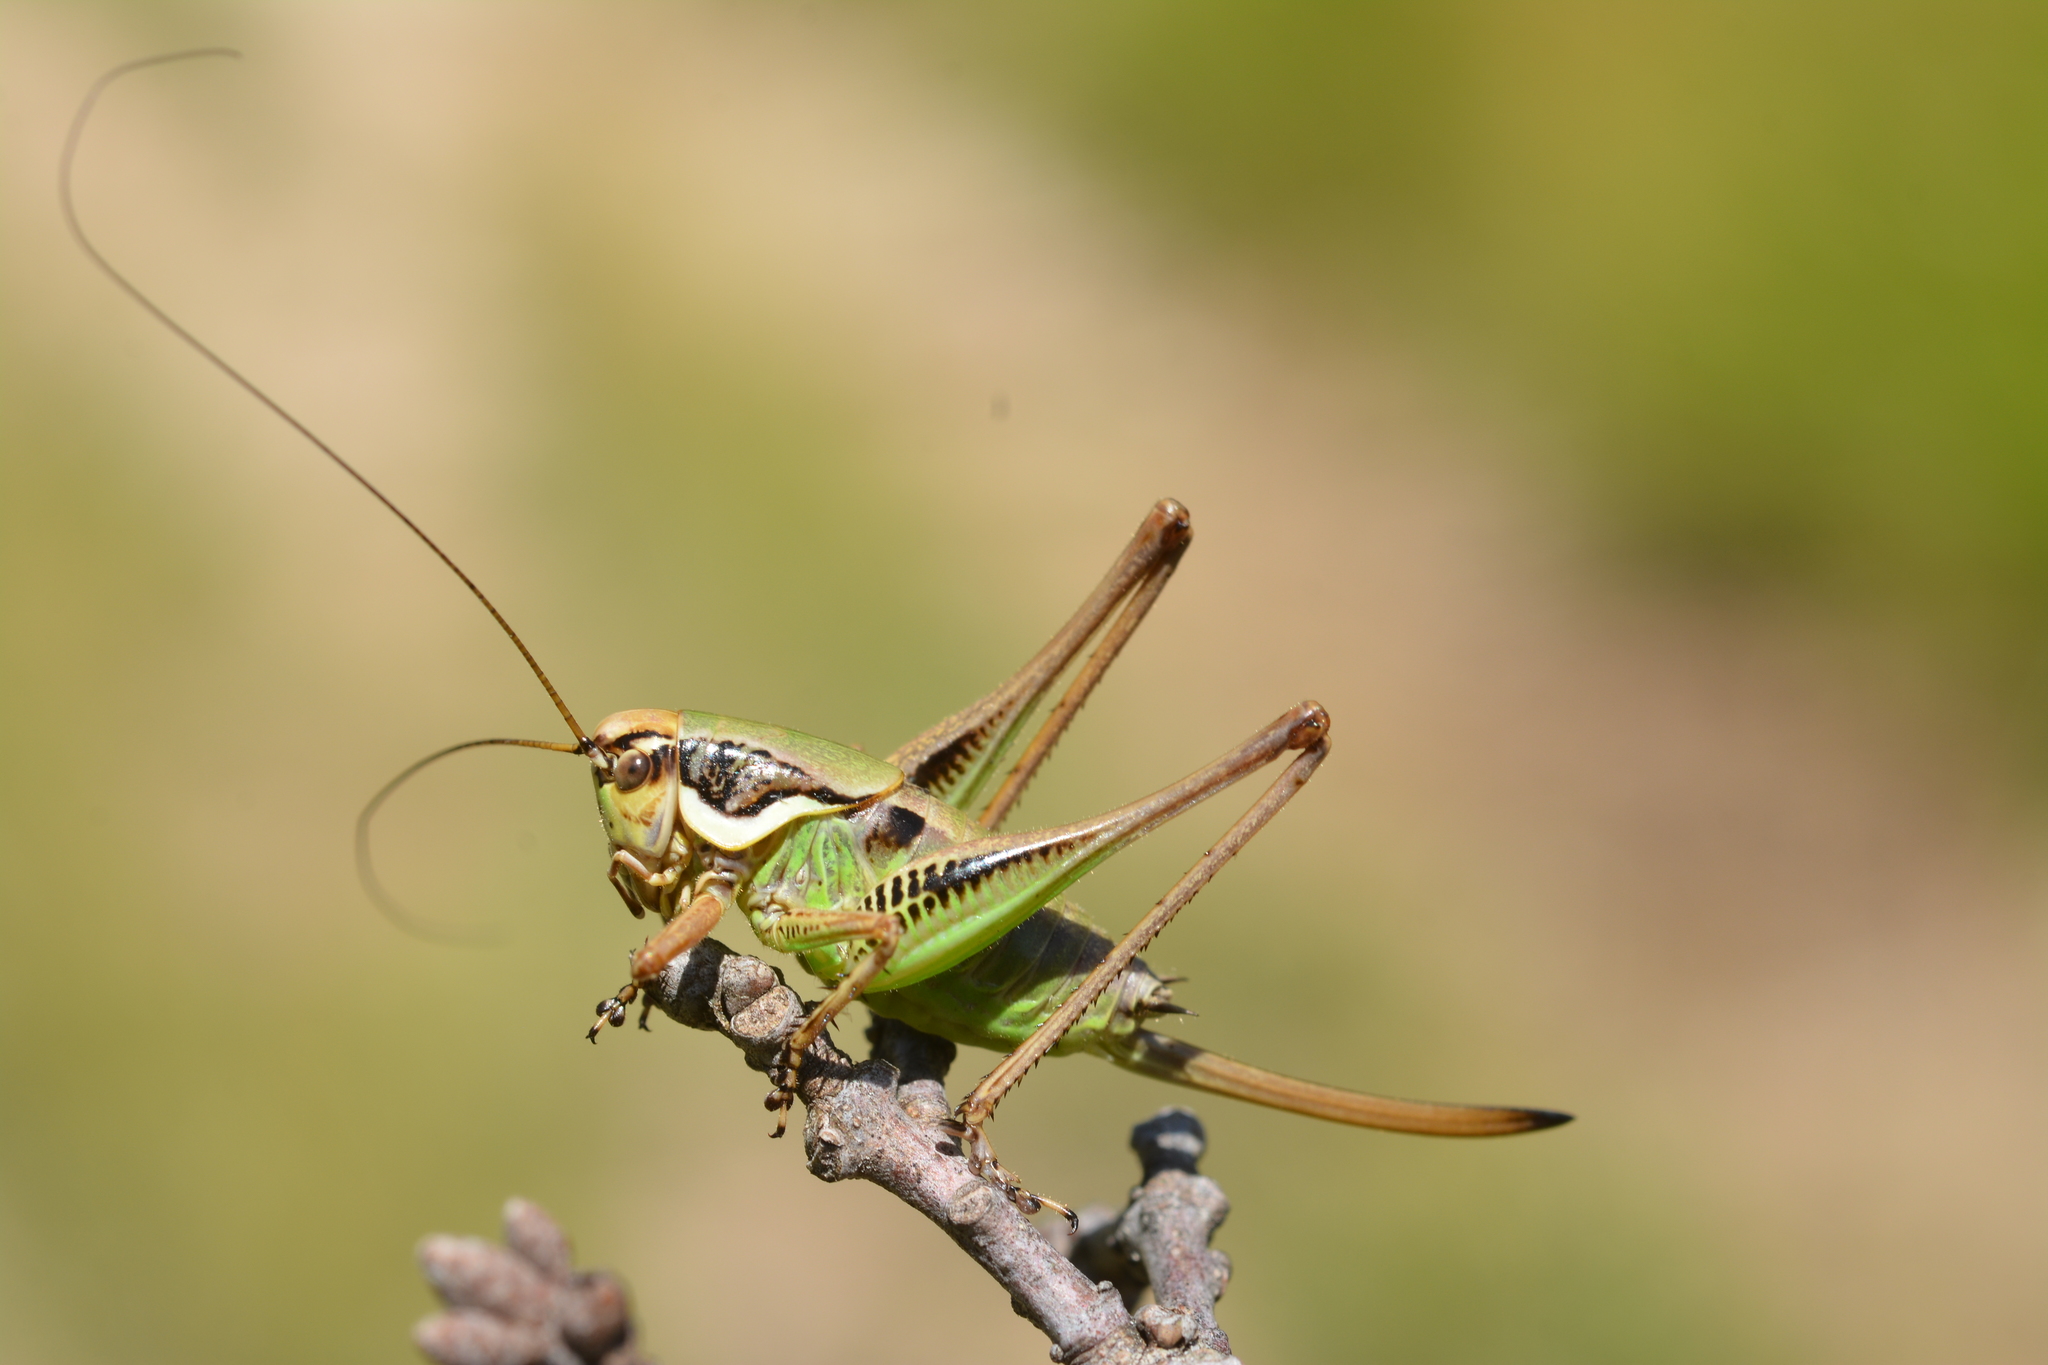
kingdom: Animalia
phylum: Arthropoda
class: Insecta
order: Orthoptera
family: Tettigoniidae
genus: Eupholidoptera
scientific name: Eupholidoptera chabrieri
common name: Chabrier's marbled bush-cricket
